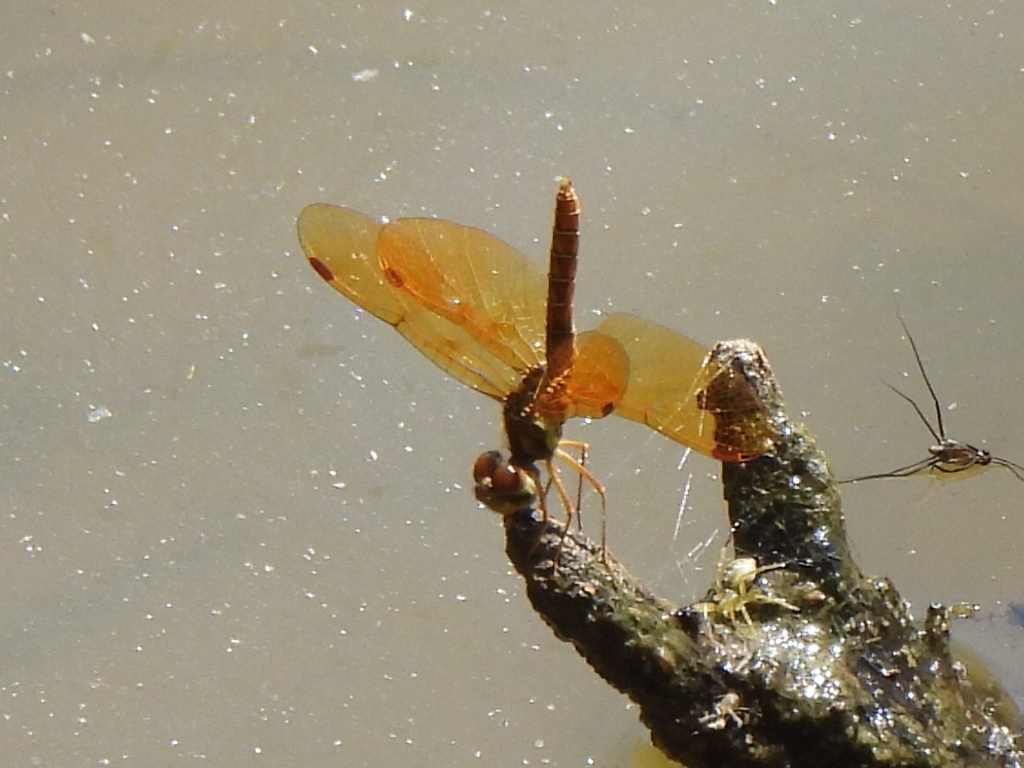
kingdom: Animalia
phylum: Arthropoda
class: Insecta
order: Odonata
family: Libellulidae
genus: Perithemis
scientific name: Perithemis tenera
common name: Eastern amberwing
